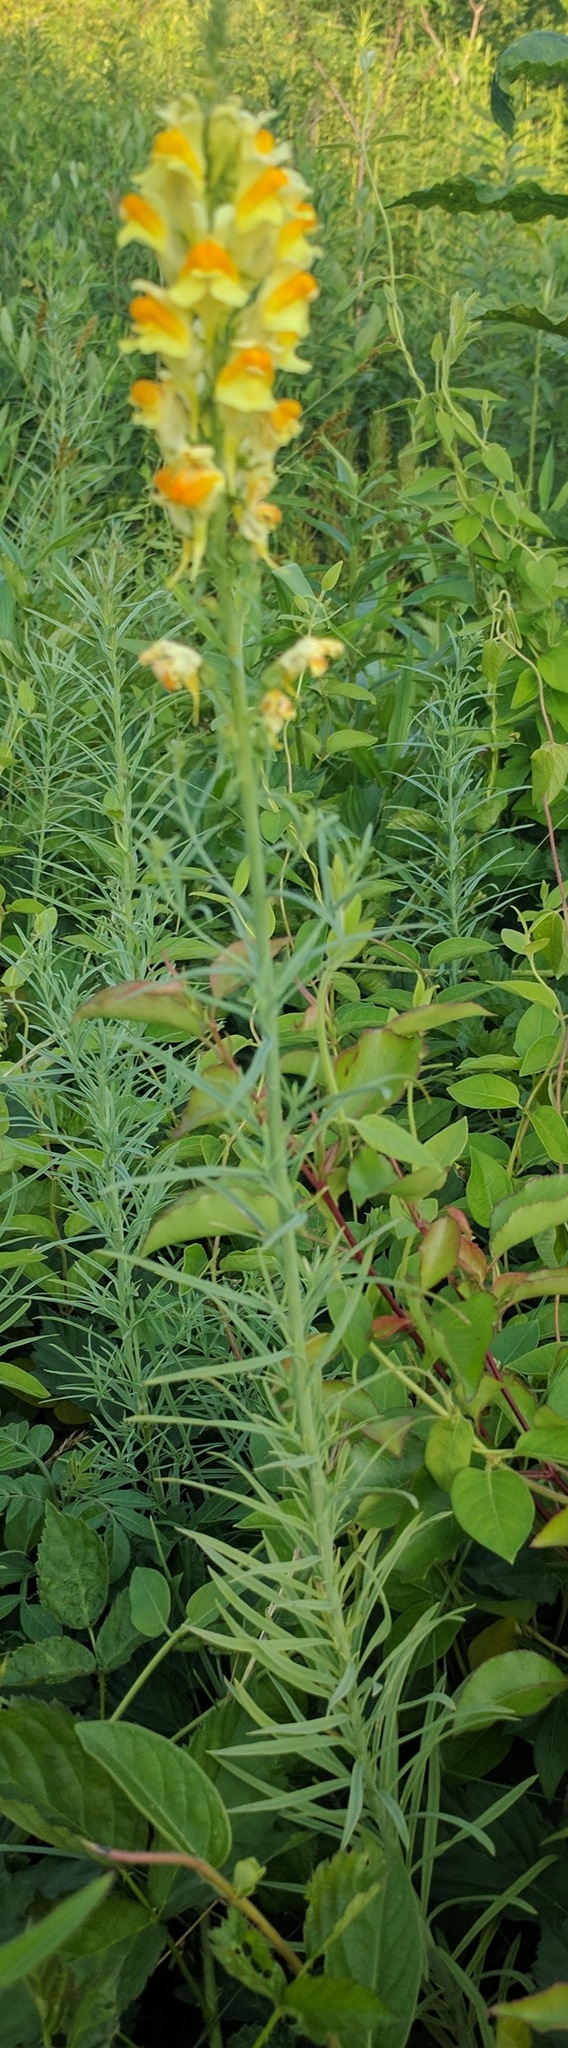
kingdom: Plantae
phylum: Tracheophyta
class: Magnoliopsida
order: Lamiales
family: Plantaginaceae
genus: Linaria
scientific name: Linaria vulgaris
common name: Butter and eggs
